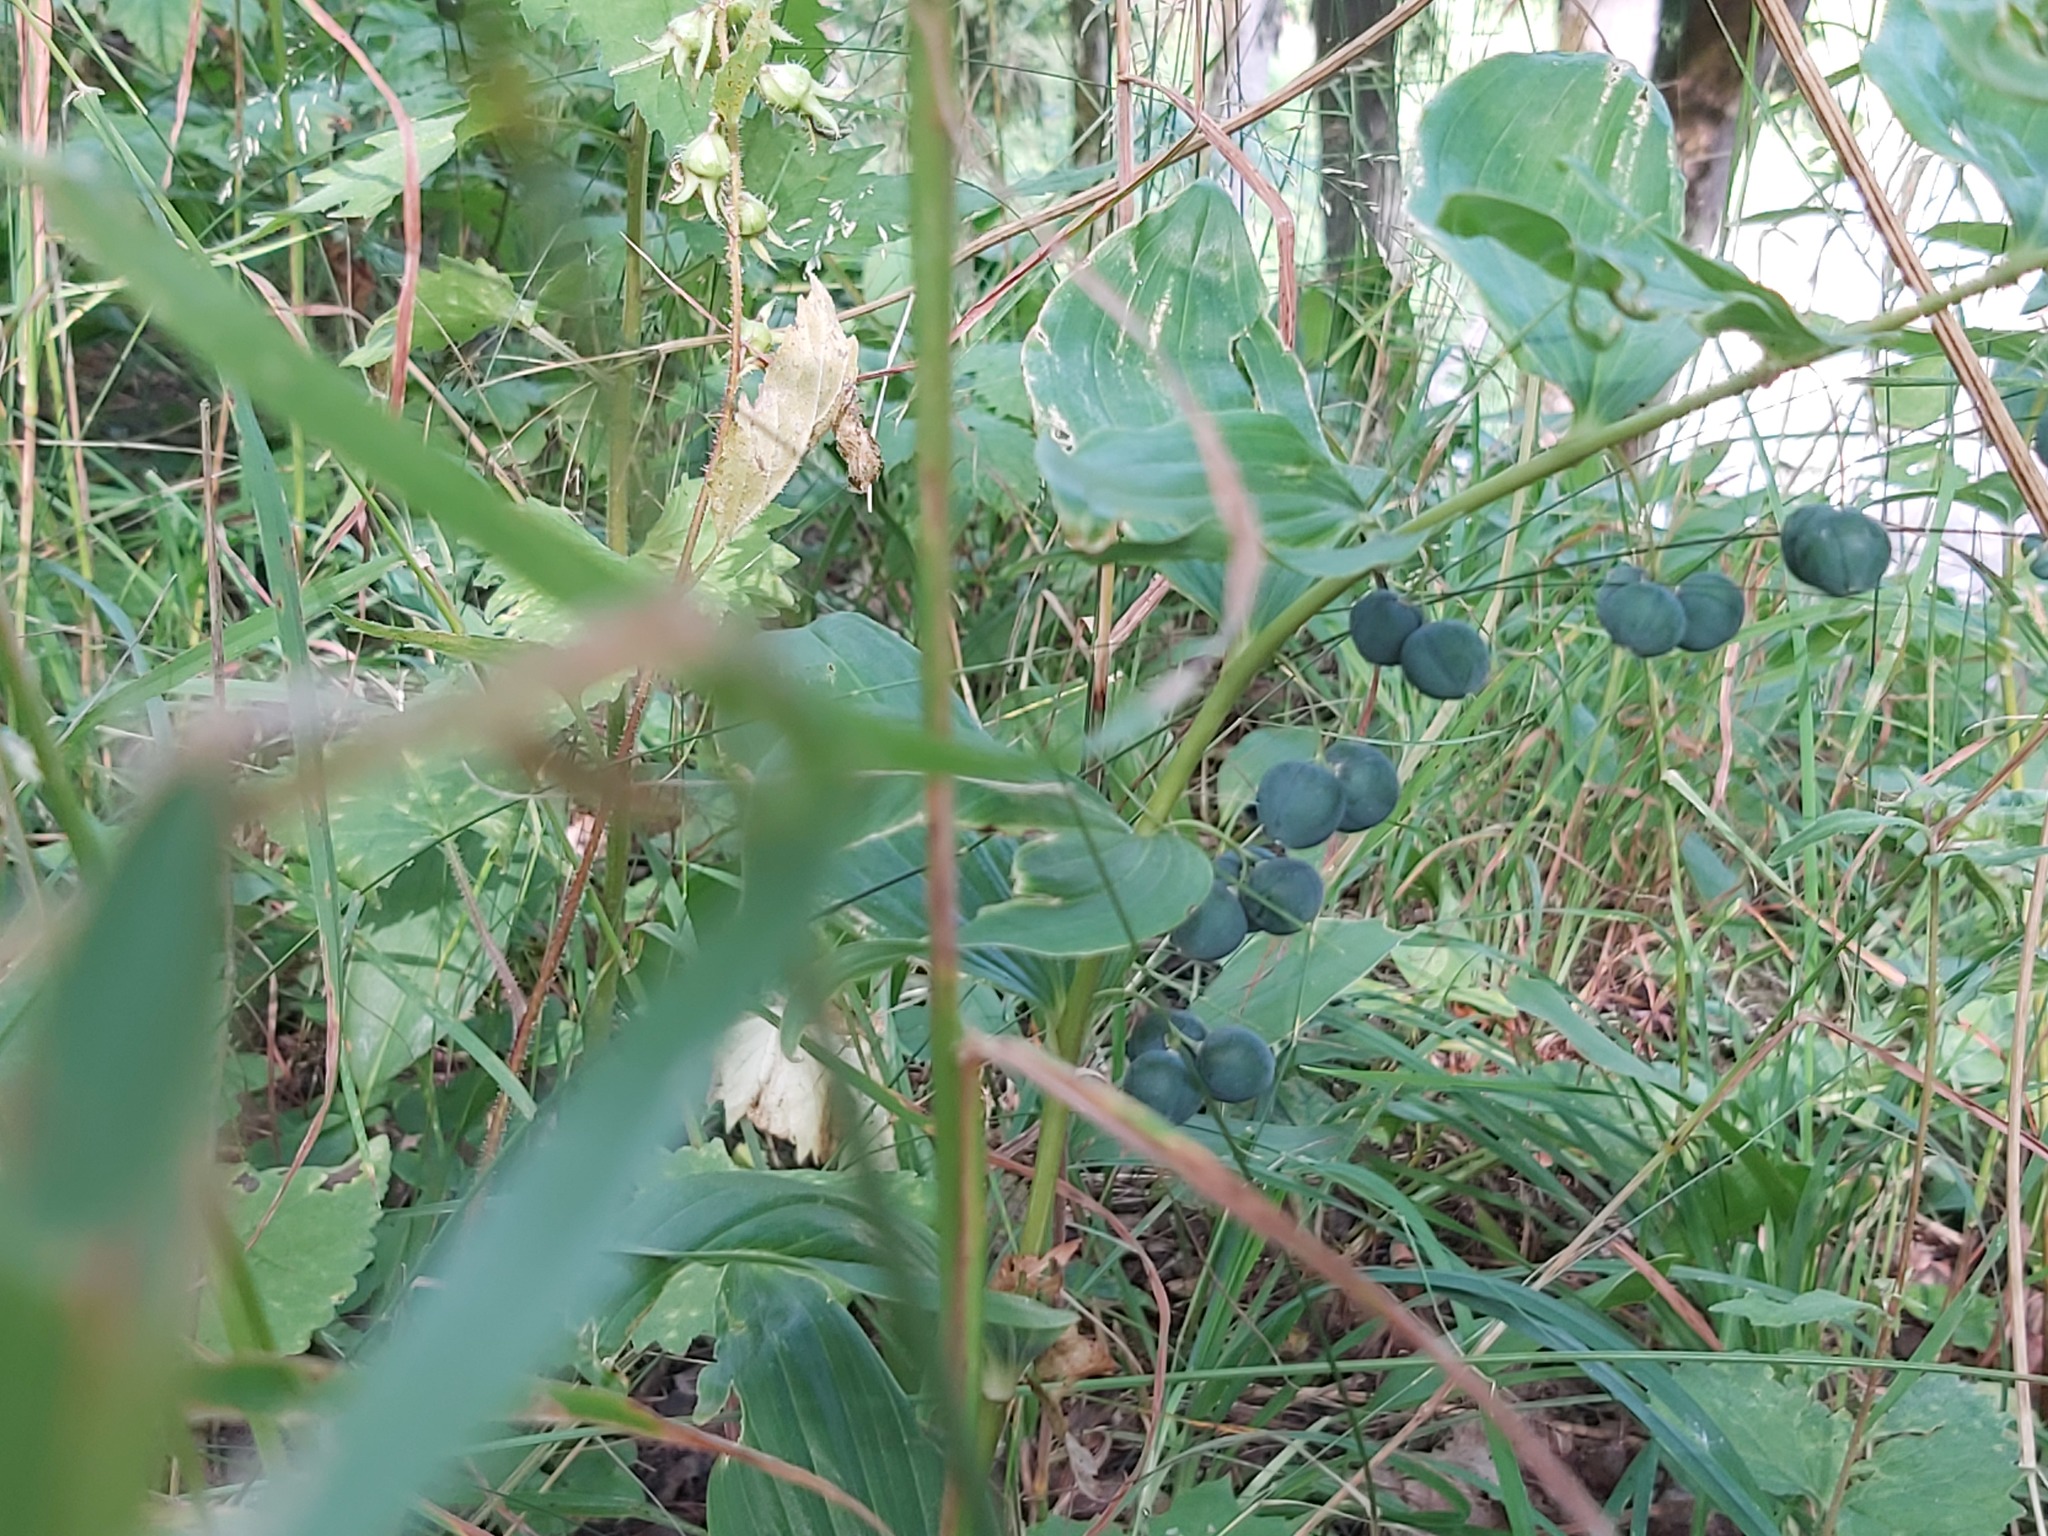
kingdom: Plantae
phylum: Tracheophyta
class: Liliopsida
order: Asparagales
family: Asparagaceae
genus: Polygonatum
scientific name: Polygonatum multiflorum
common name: Solomon's-seal
